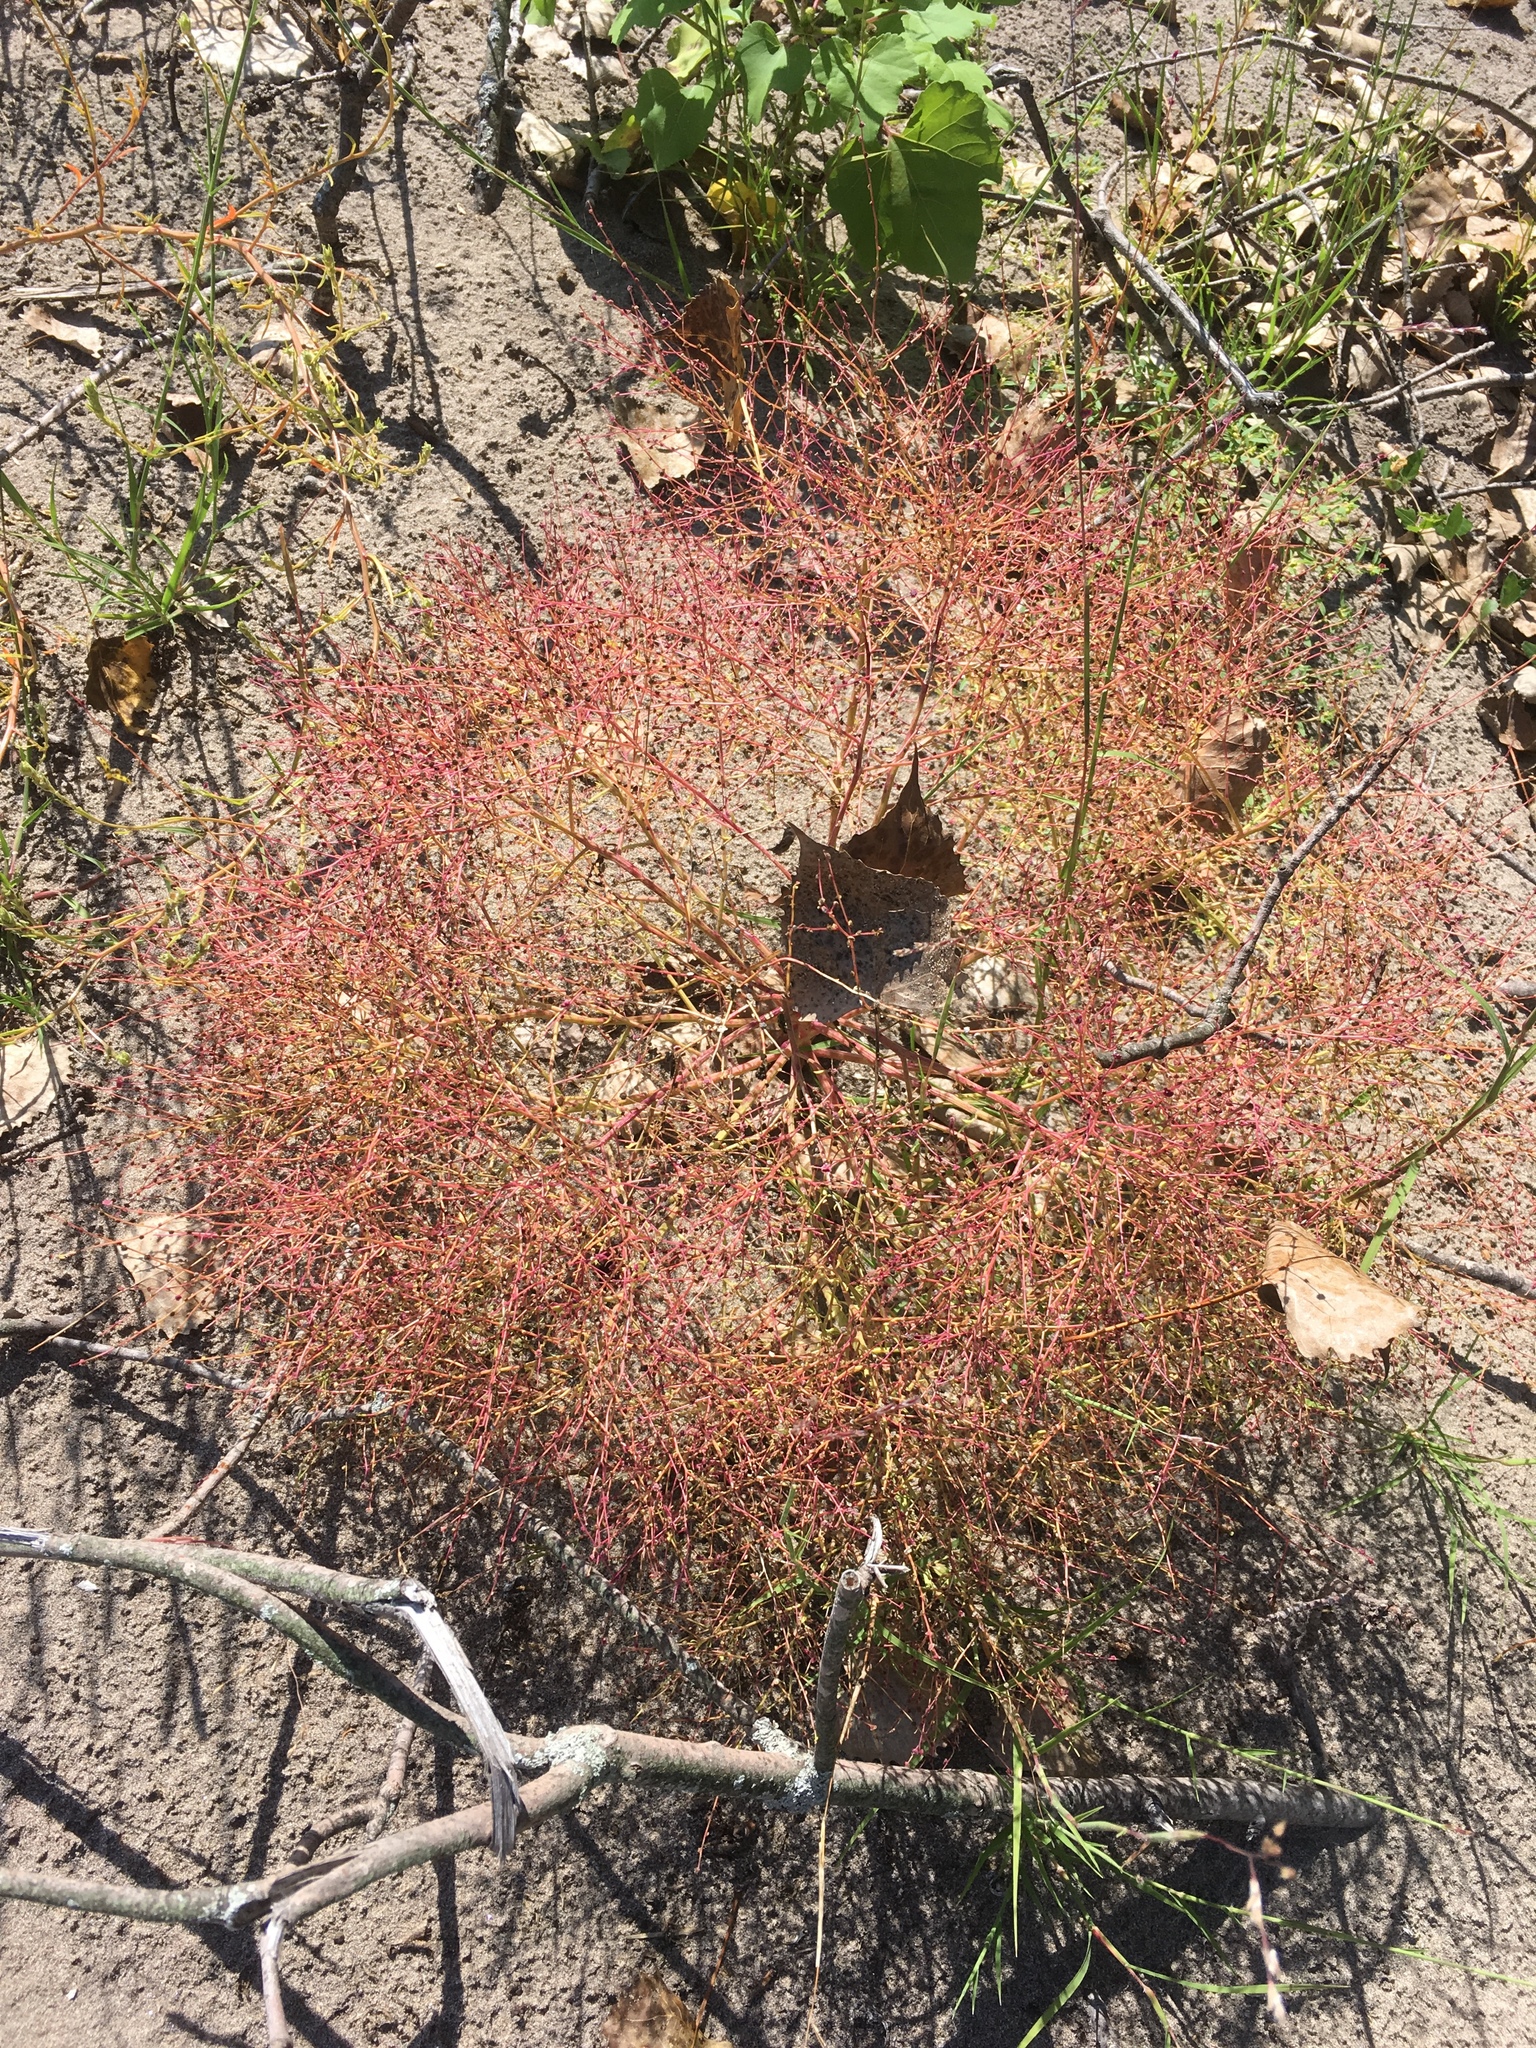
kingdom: Plantae
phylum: Tracheophyta
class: Magnoliopsida
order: Caryophyllales
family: Amaranthaceae
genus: Dysphania
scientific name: Dysphania atriplicifolia
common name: Plains tumbleweed
